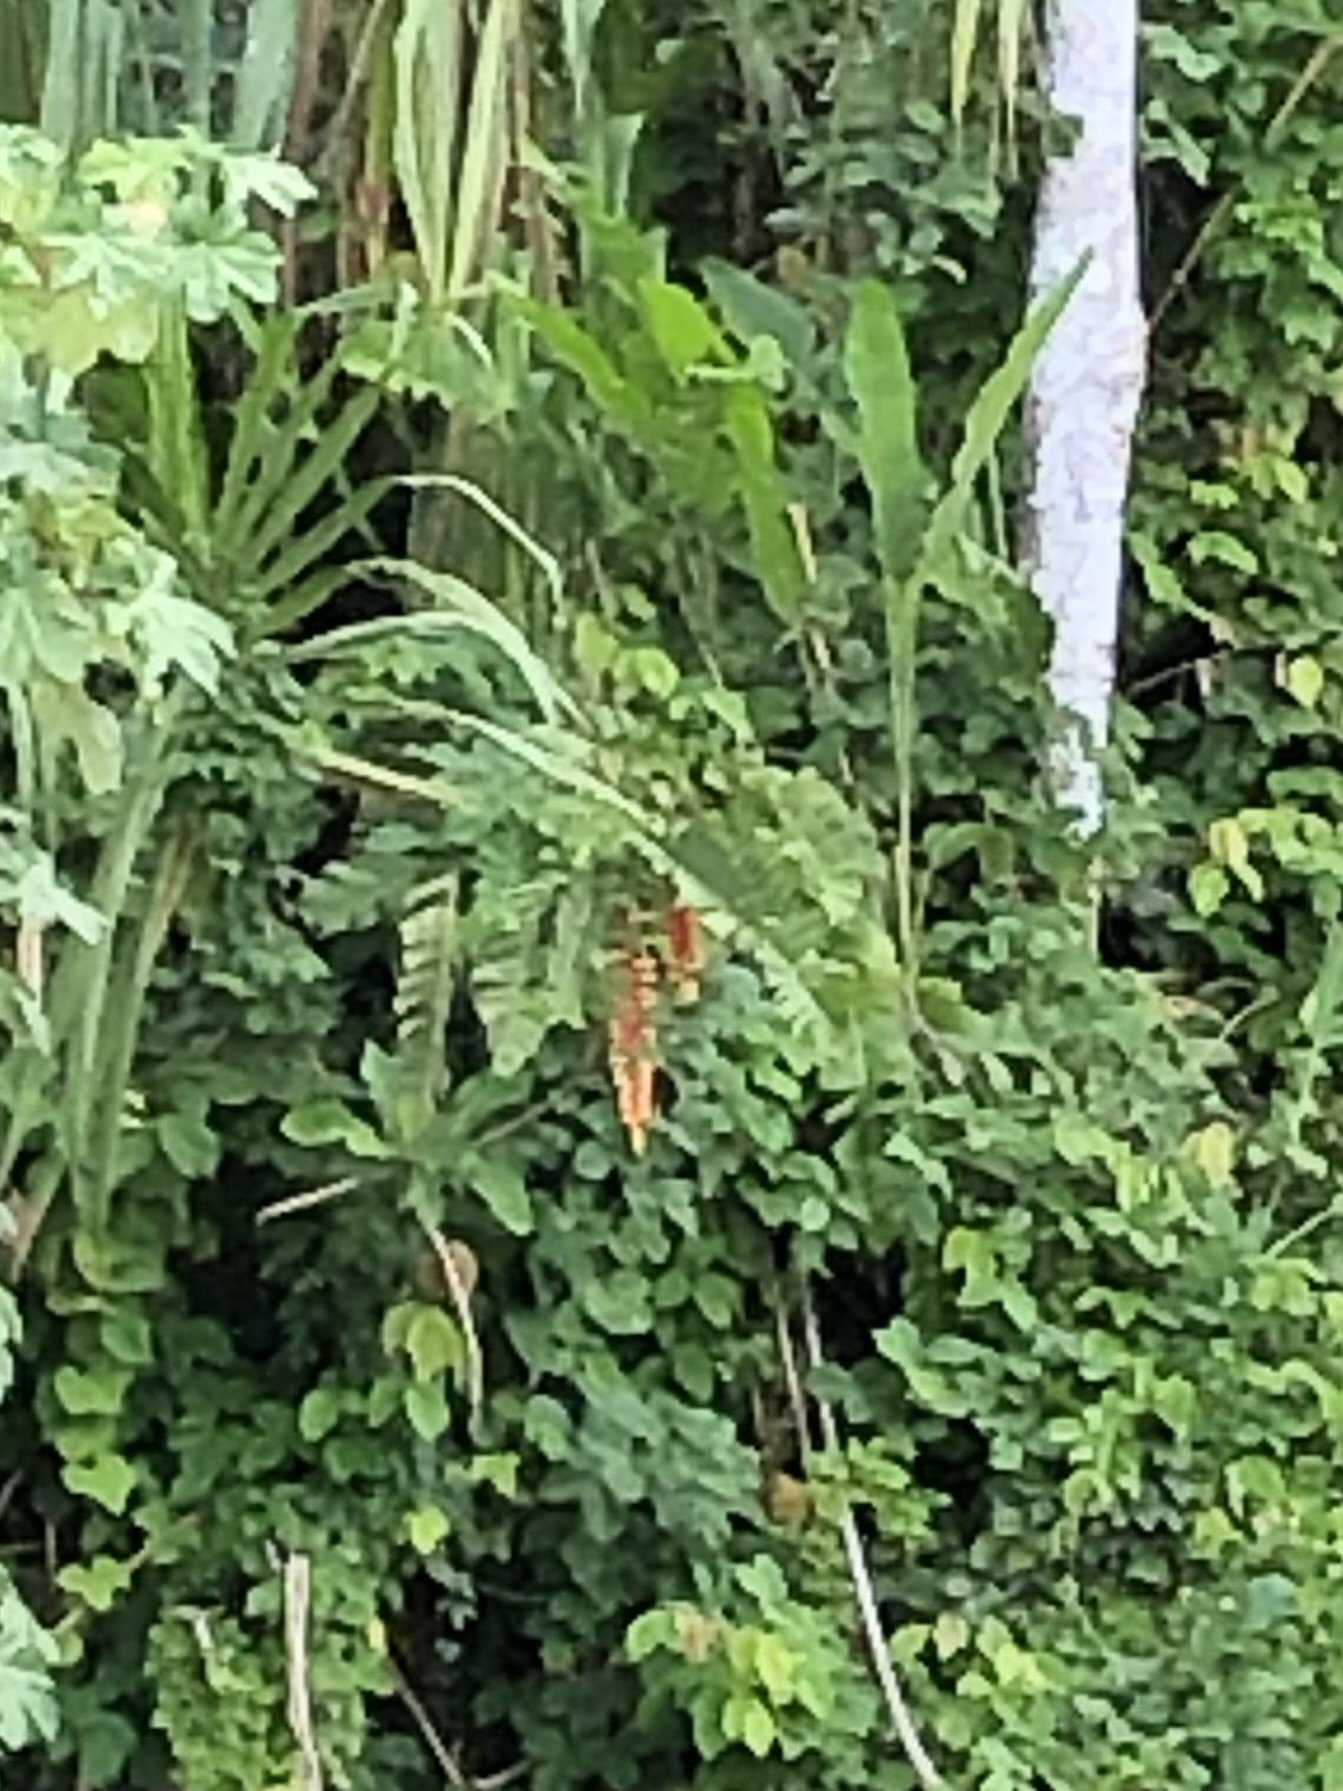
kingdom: Plantae
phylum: Tracheophyta
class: Liliopsida
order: Zingiberales
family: Heliconiaceae
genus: Heliconia
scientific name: Heliconia rostrata
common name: False bird of paradise
